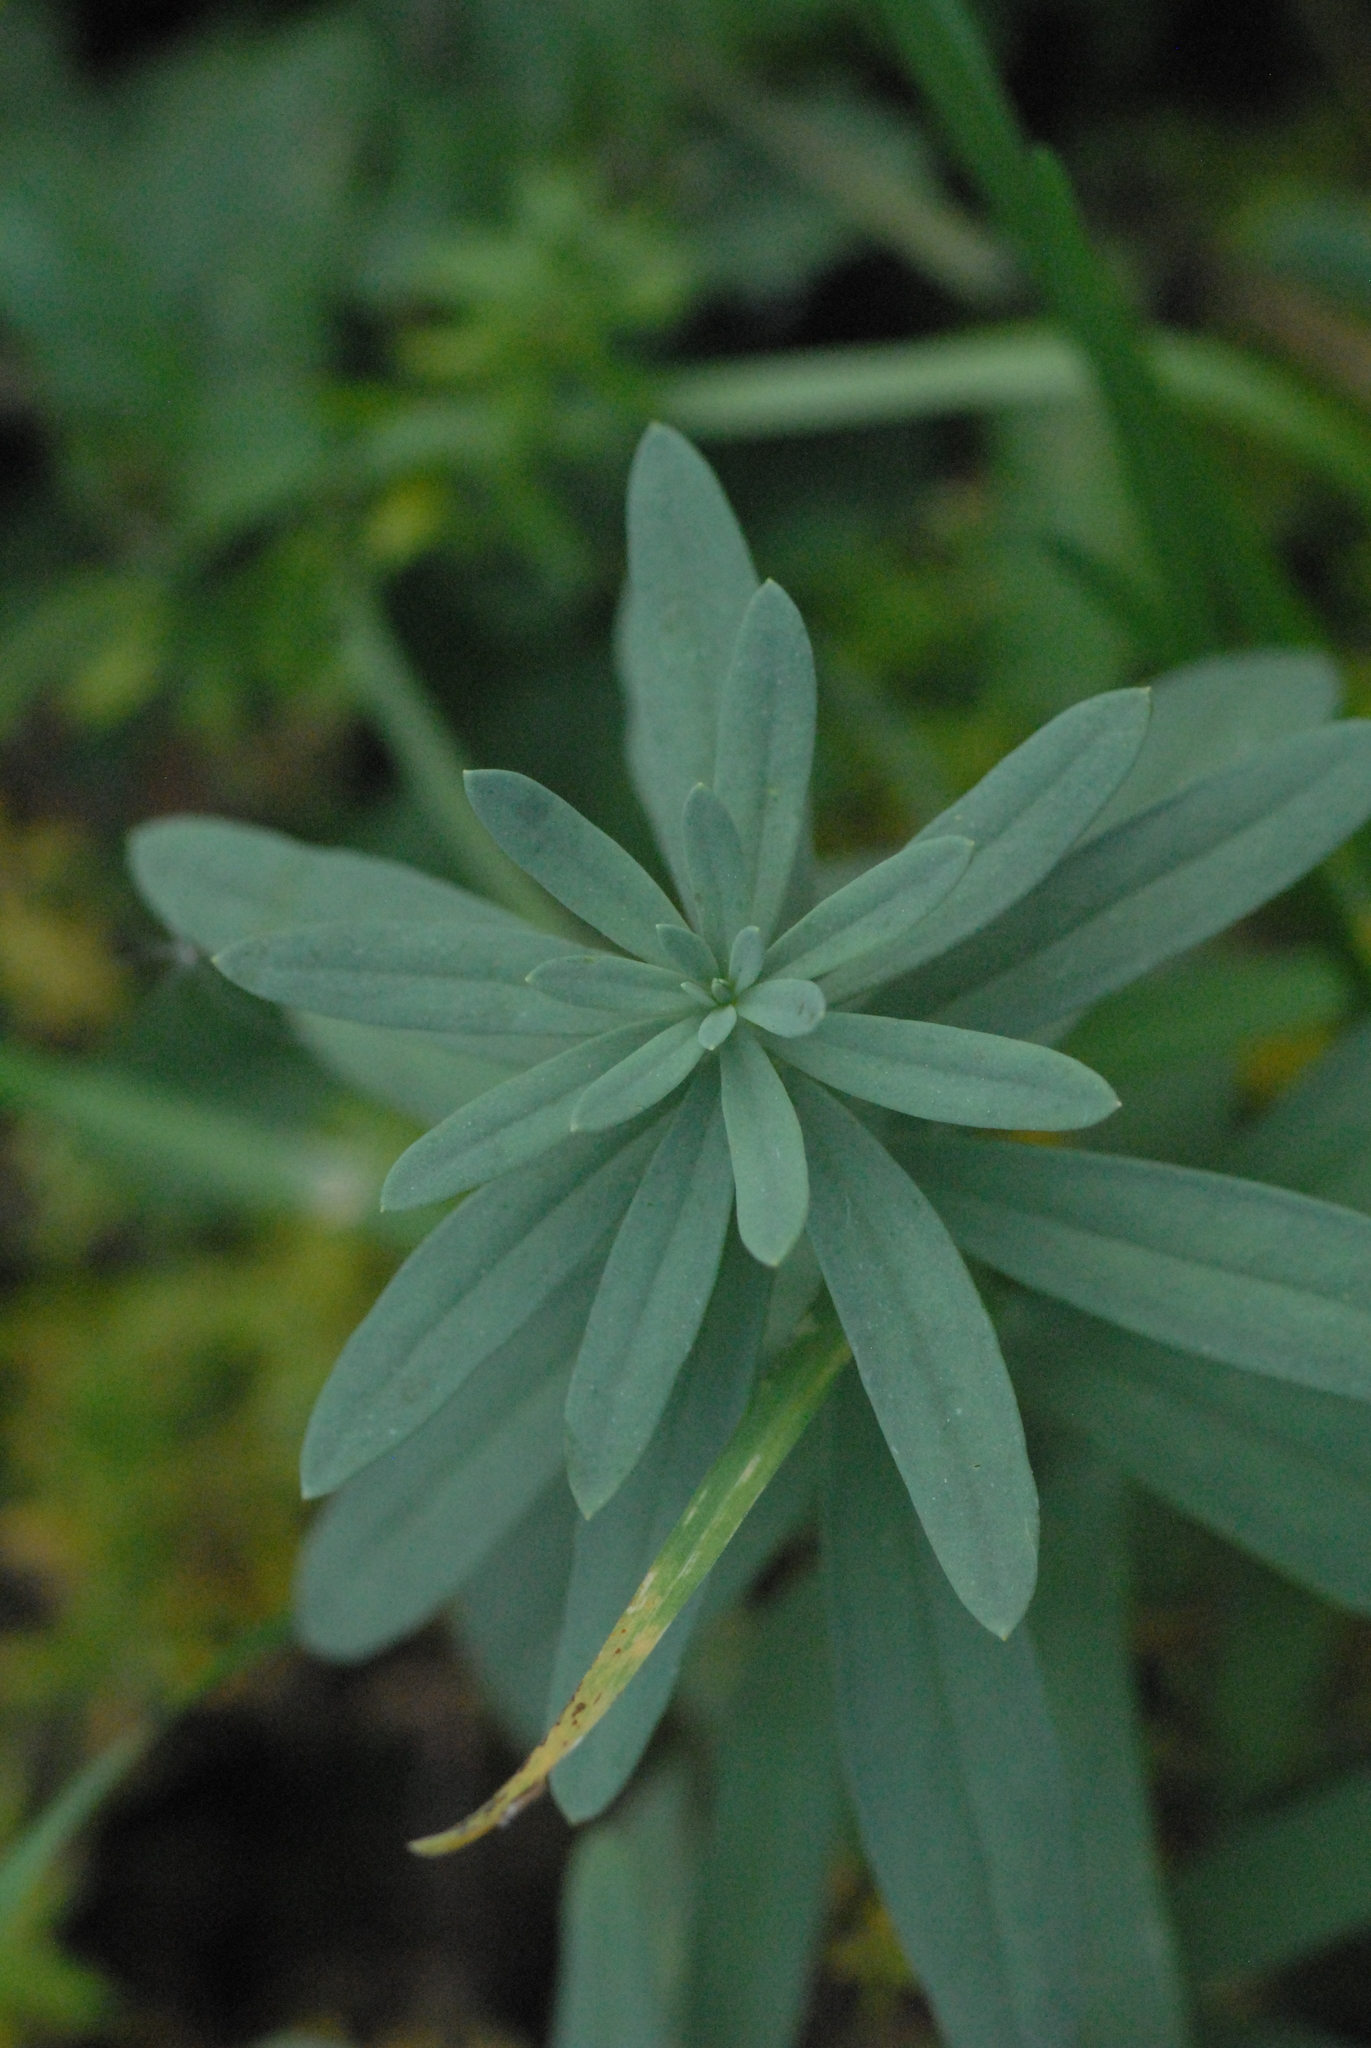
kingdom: Plantae
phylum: Tracheophyta
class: Magnoliopsida
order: Lamiales
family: Plantaginaceae
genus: Linaria
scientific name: Linaria vulgaris
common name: Butter and eggs
